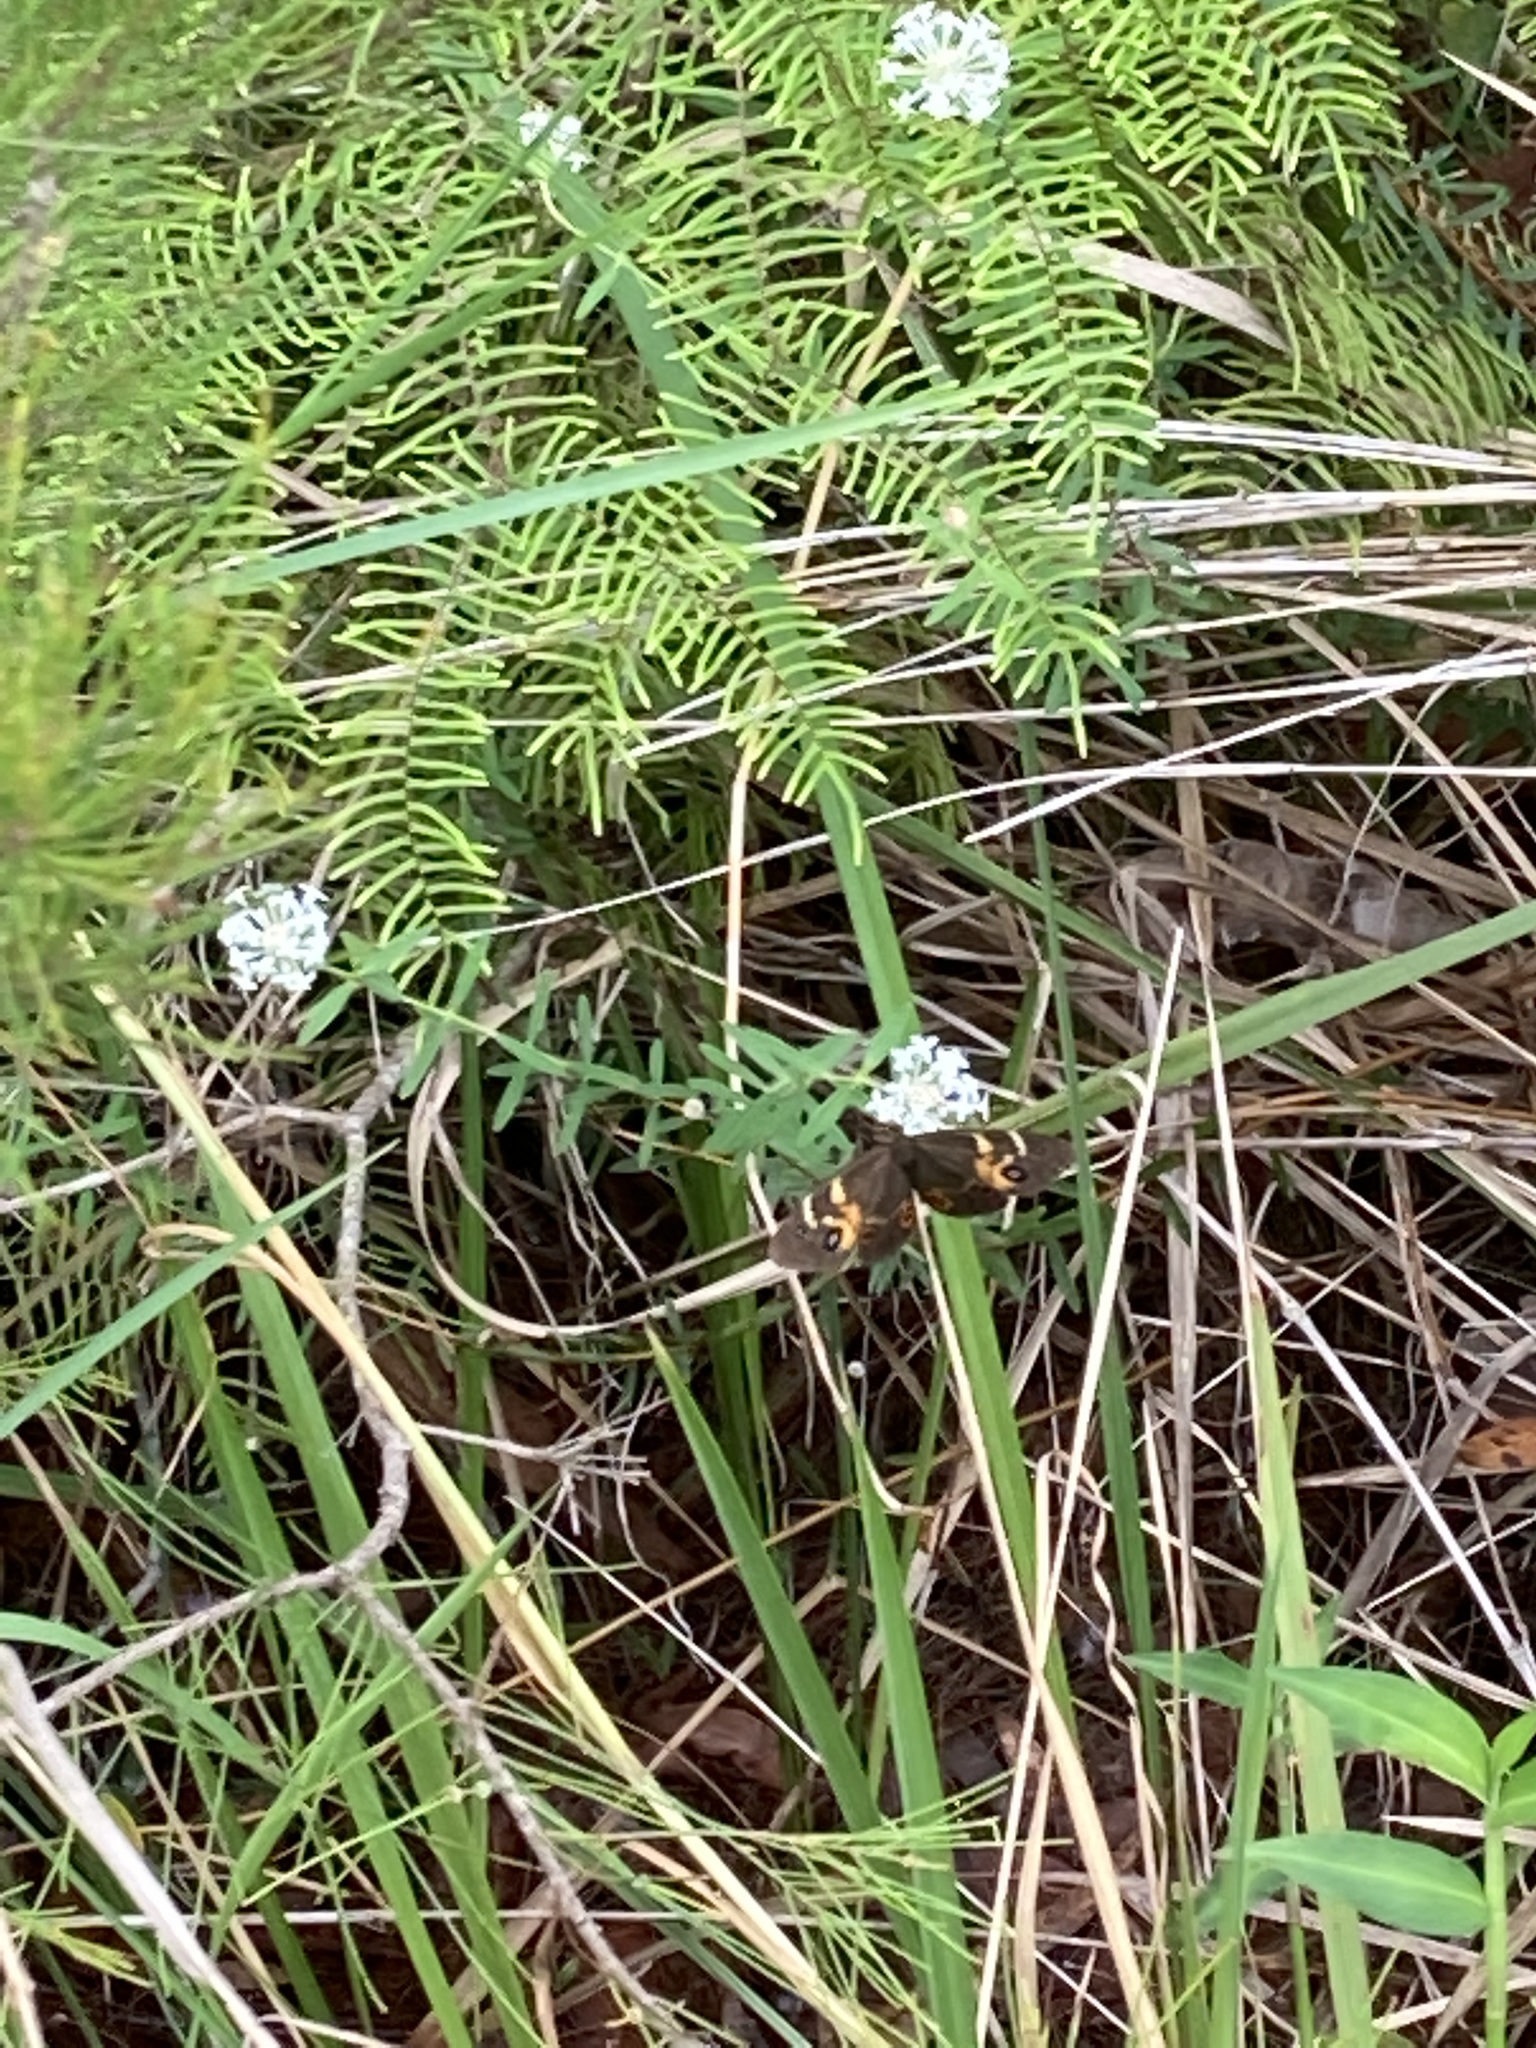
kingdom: Animalia
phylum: Arthropoda
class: Insecta
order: Lepidoptera
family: Nymphalidae
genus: Tisiphone
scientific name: Tisiphone abeona
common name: Swordgrass brown
